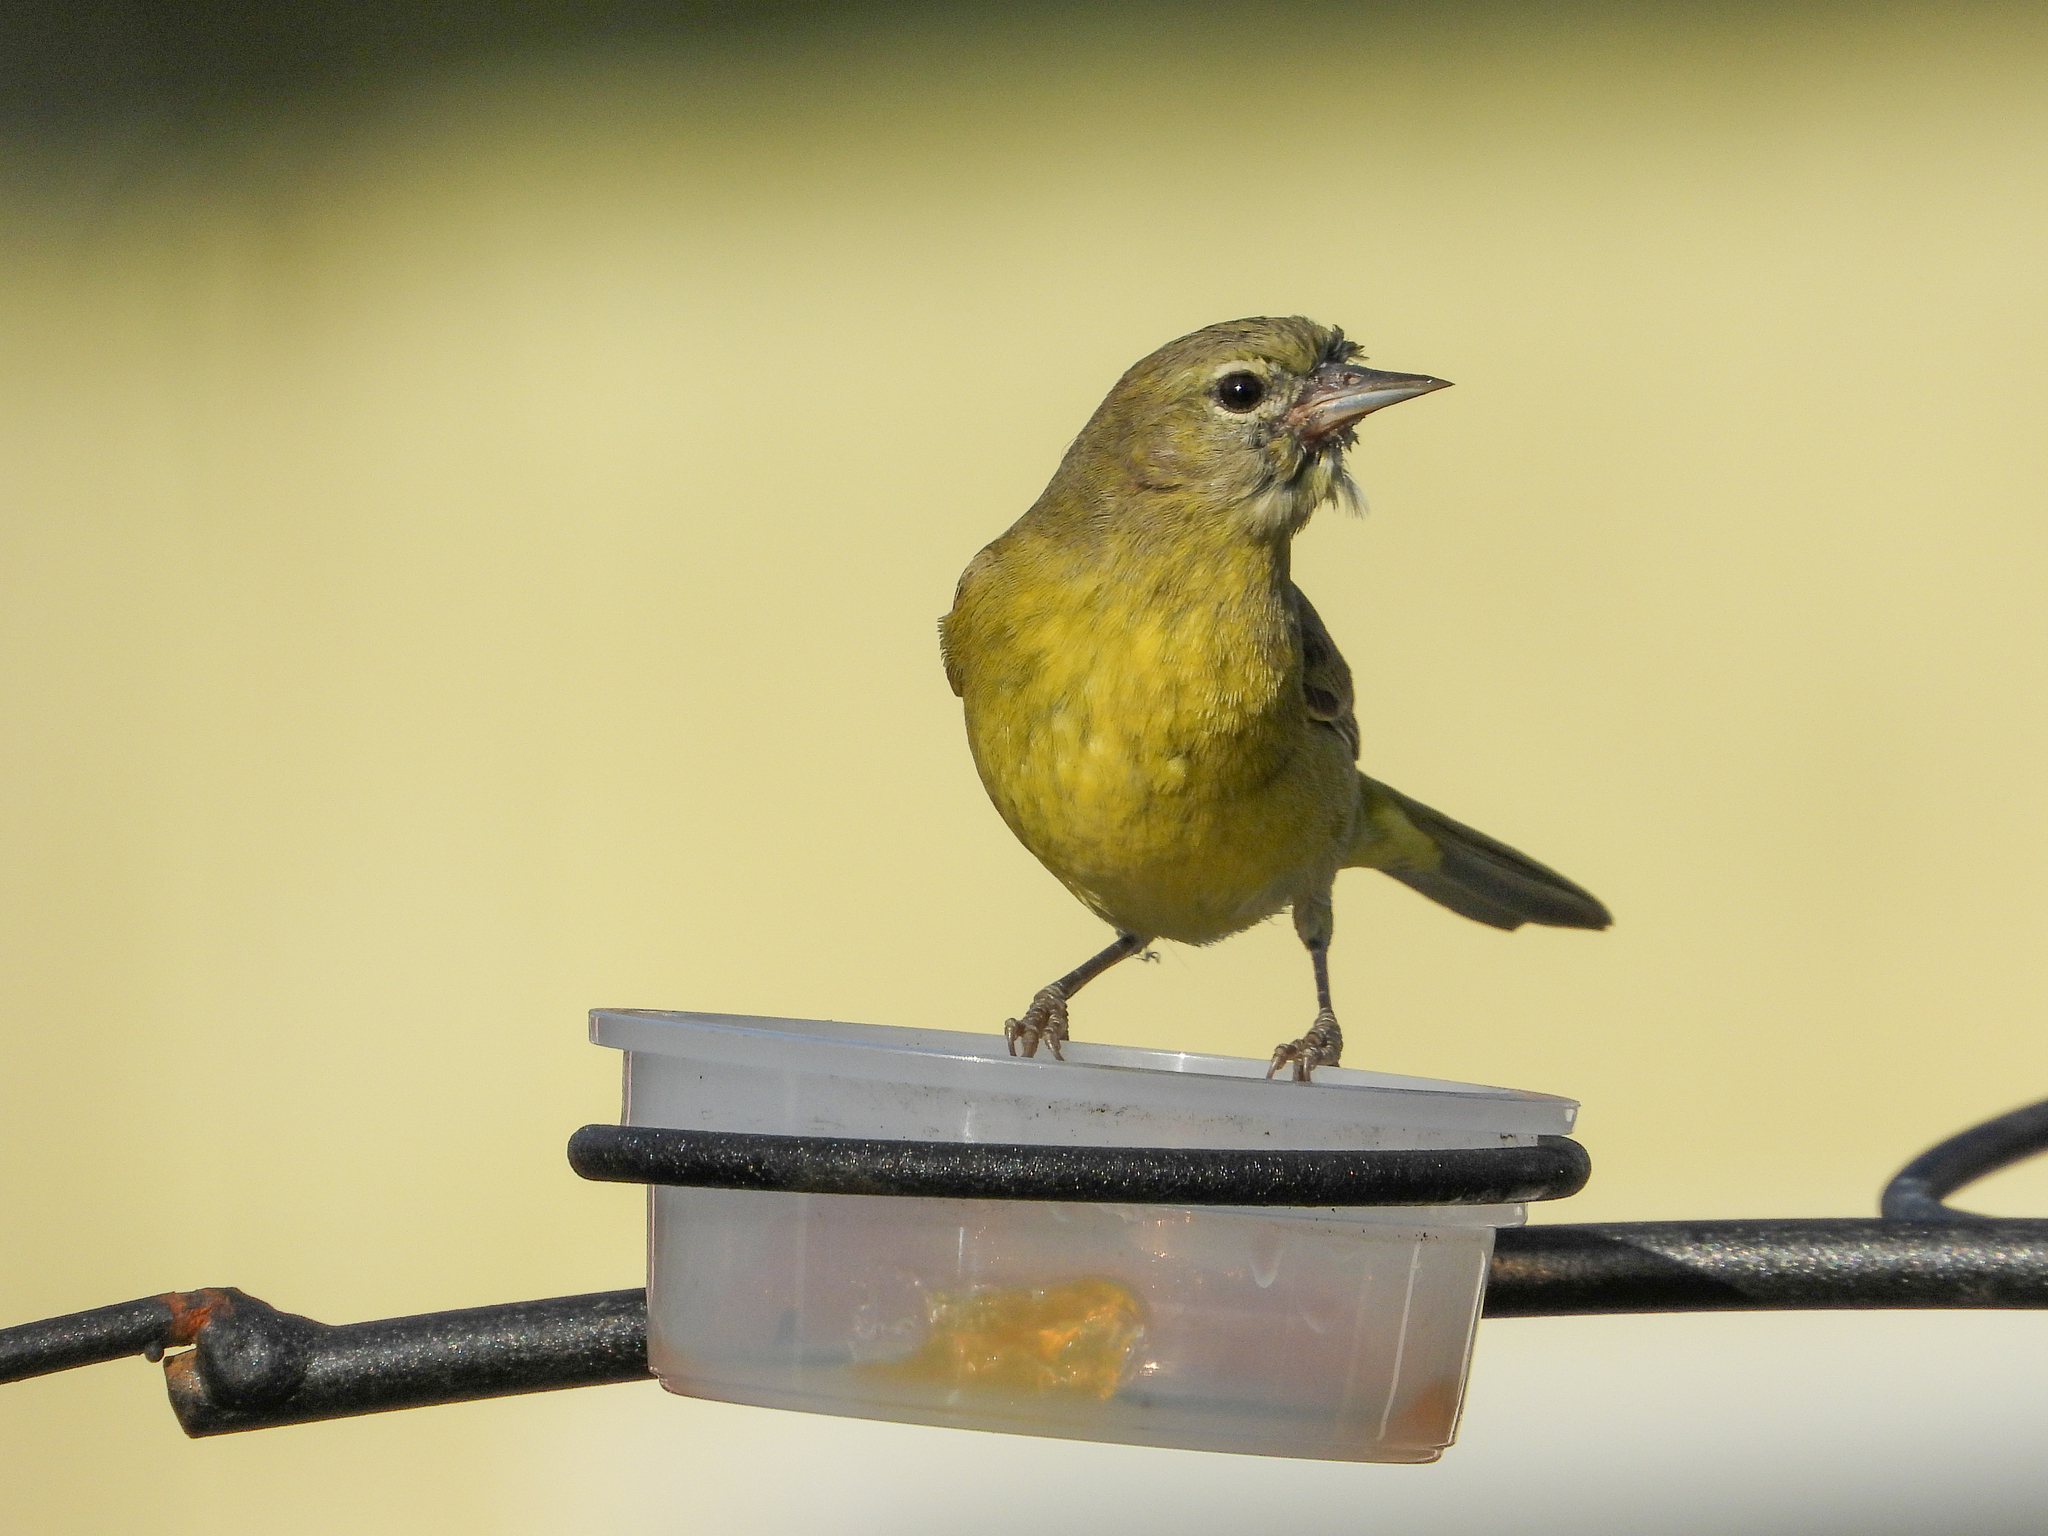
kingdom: Animalia
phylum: Chordata
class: Aves
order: Passeriformes
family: Parulidae
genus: Leiothlypis
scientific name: Leiothlypis celata
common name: Orange-crowned warbler
